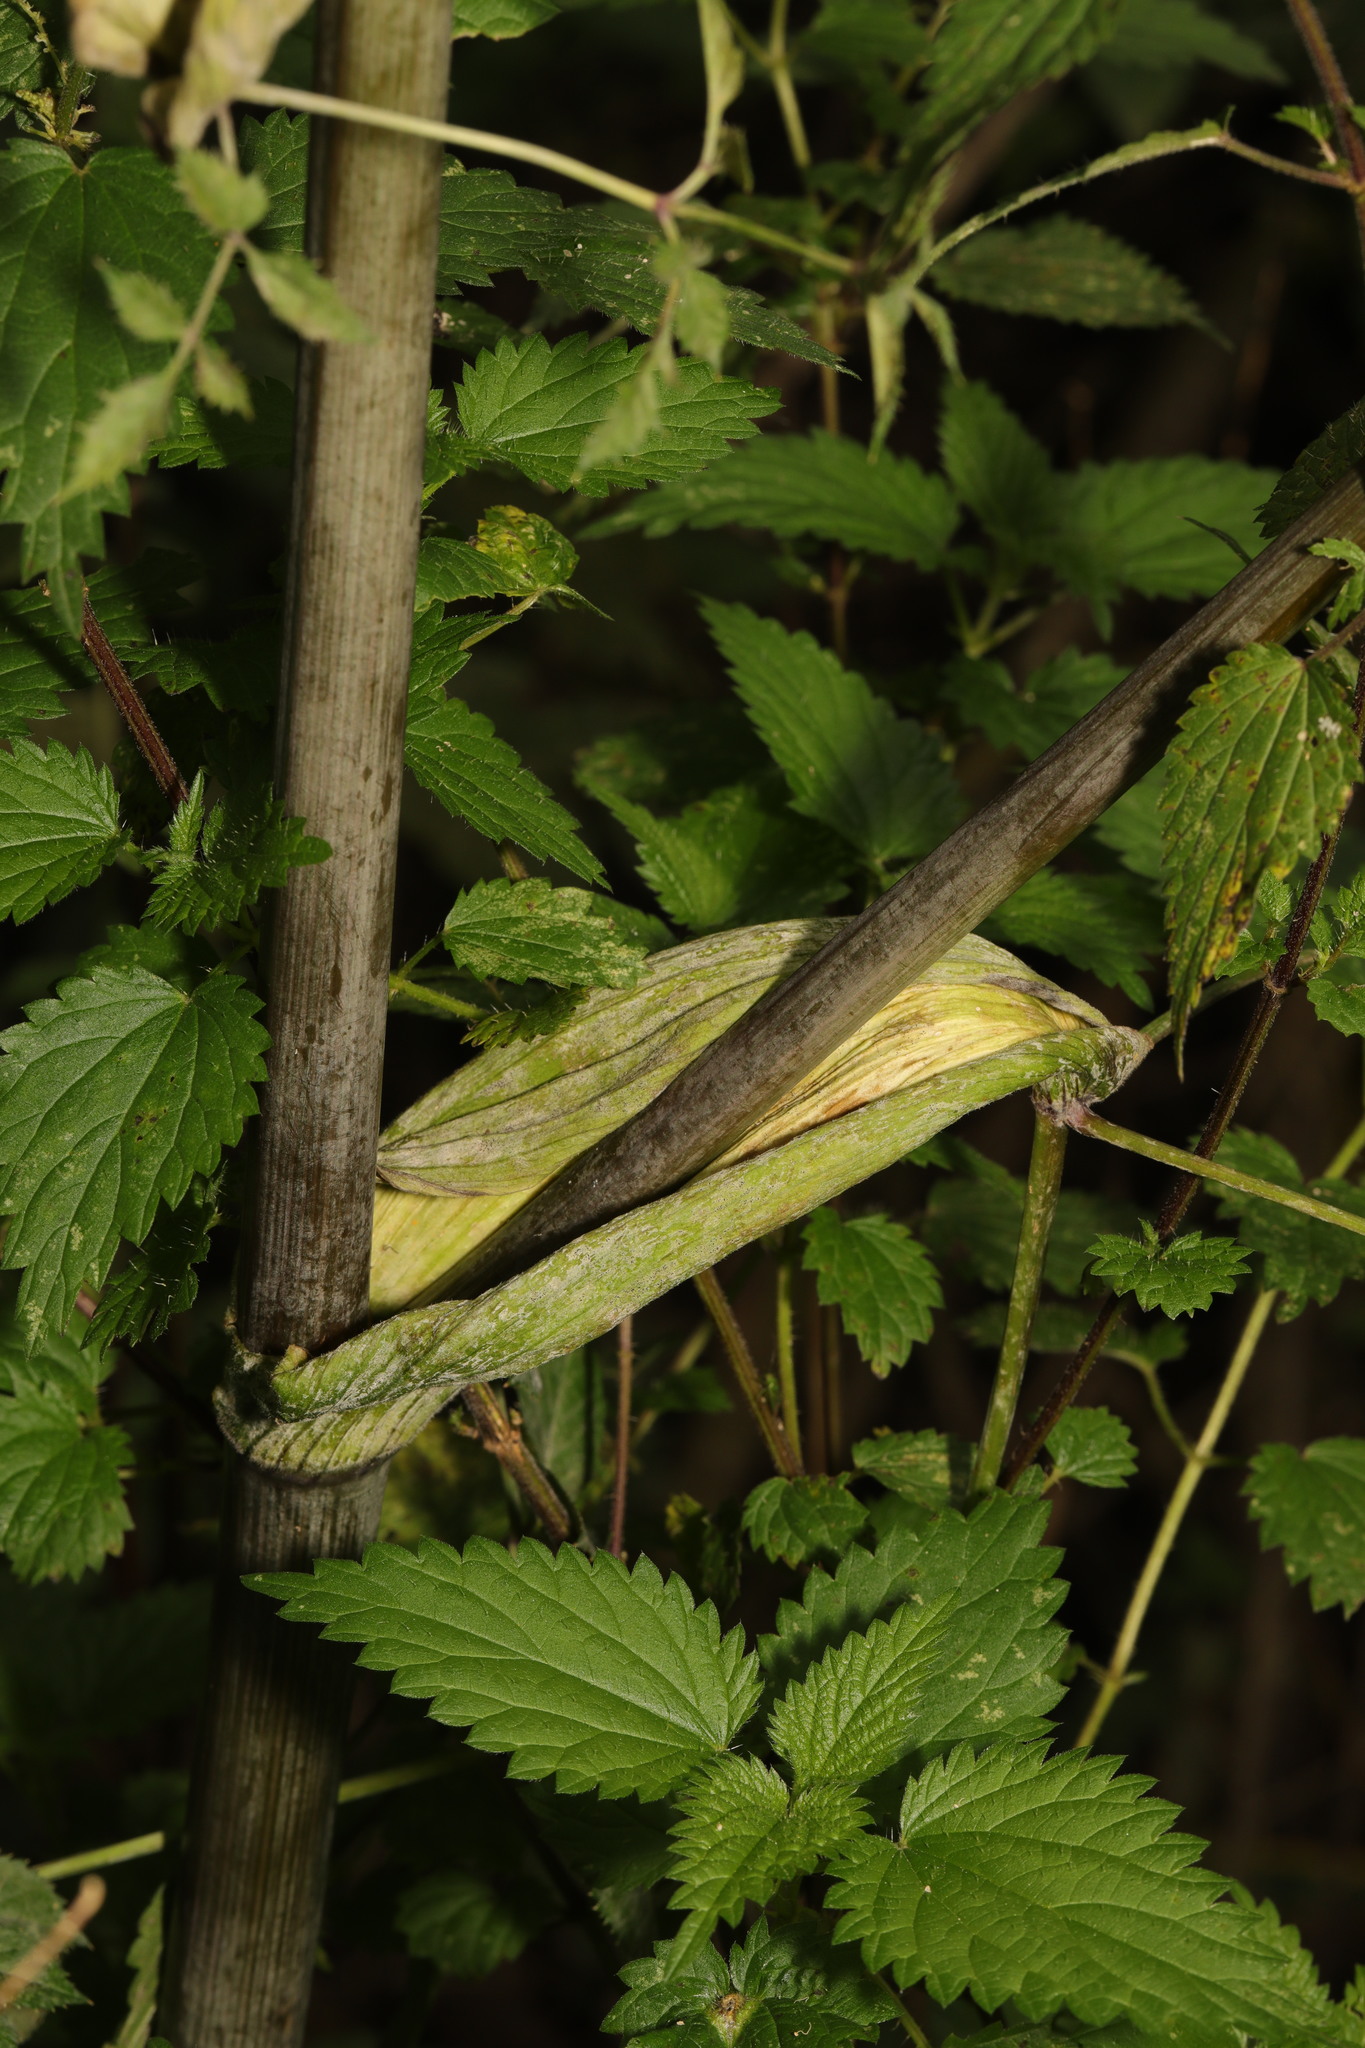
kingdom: Plantae
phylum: Tracheophyta
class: Magnoliopsida
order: Apiales
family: Apiaceae
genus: Angelica
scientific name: Angelica sylvestris
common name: Wild angelica
